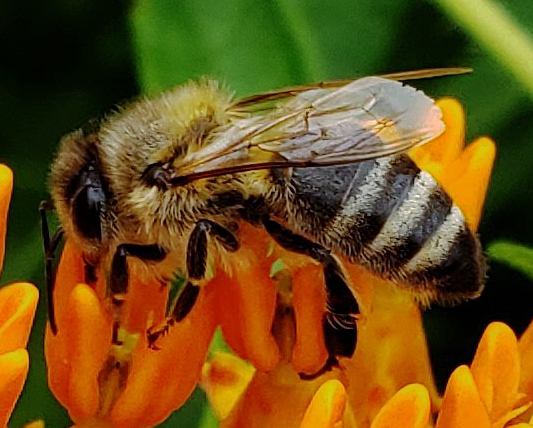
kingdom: Animalia
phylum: Arthropoda
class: Insecta
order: Hymenoptera
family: Apidae
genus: Apis
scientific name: Apis mellifera
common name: Honey bee
